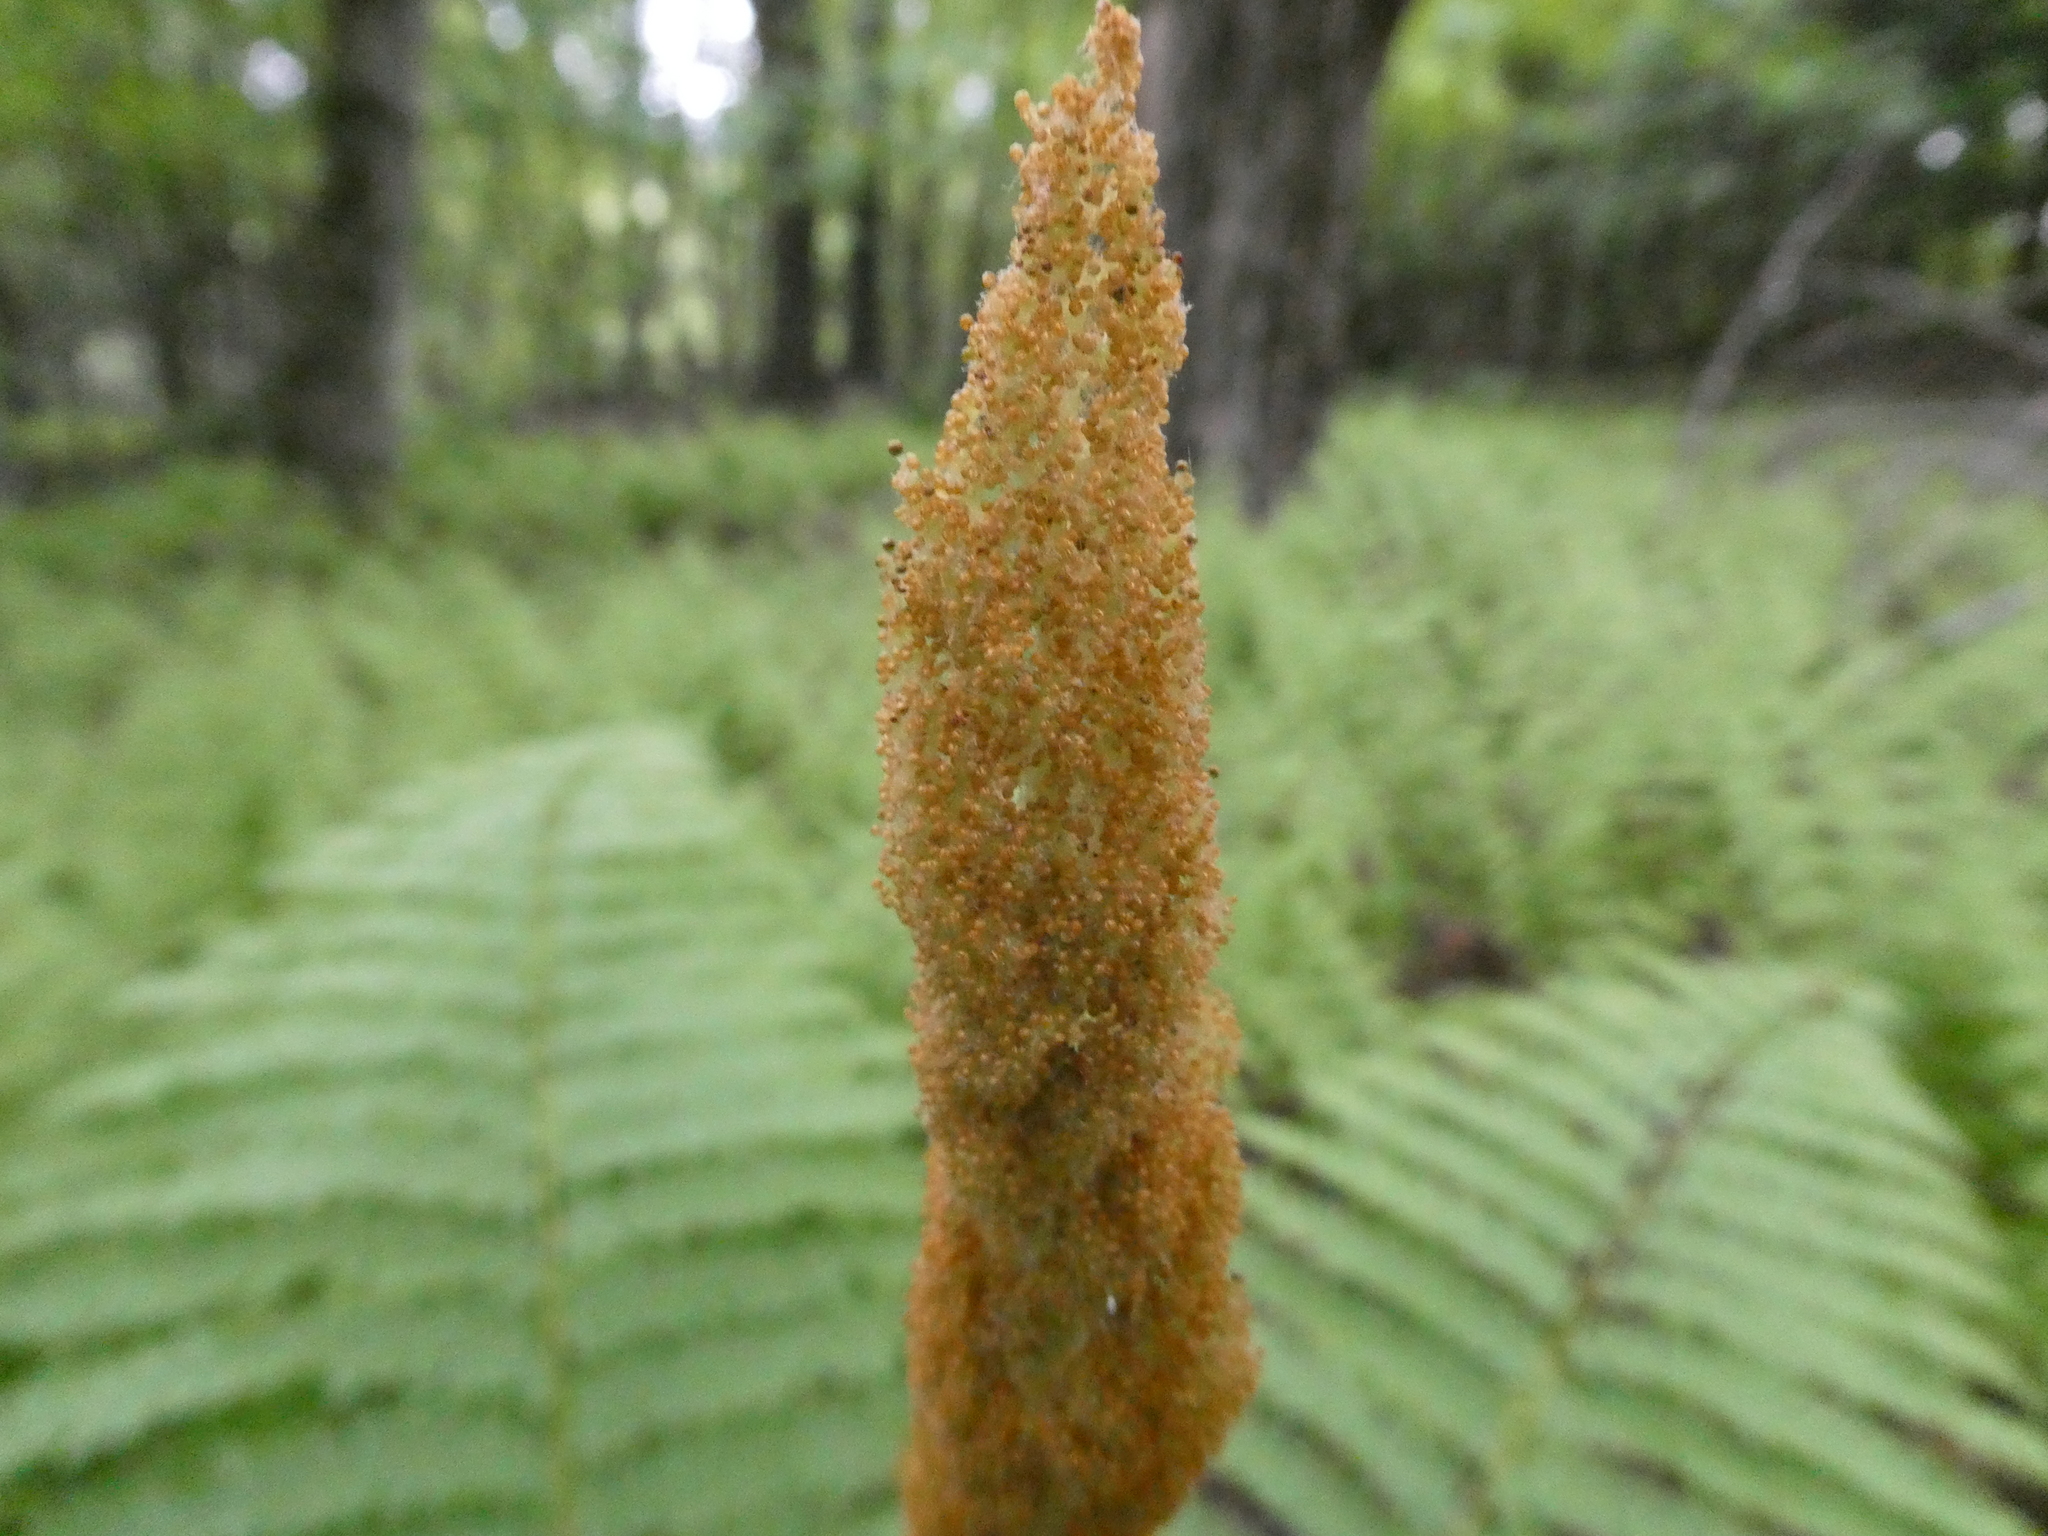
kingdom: Plantae
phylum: Tracheophyta
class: Polypodiopsida
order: Osmundales
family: Osmundaceae
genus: Osmundastrum
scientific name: Osmundastrum cinnamomeum
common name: Cinnamon fern
